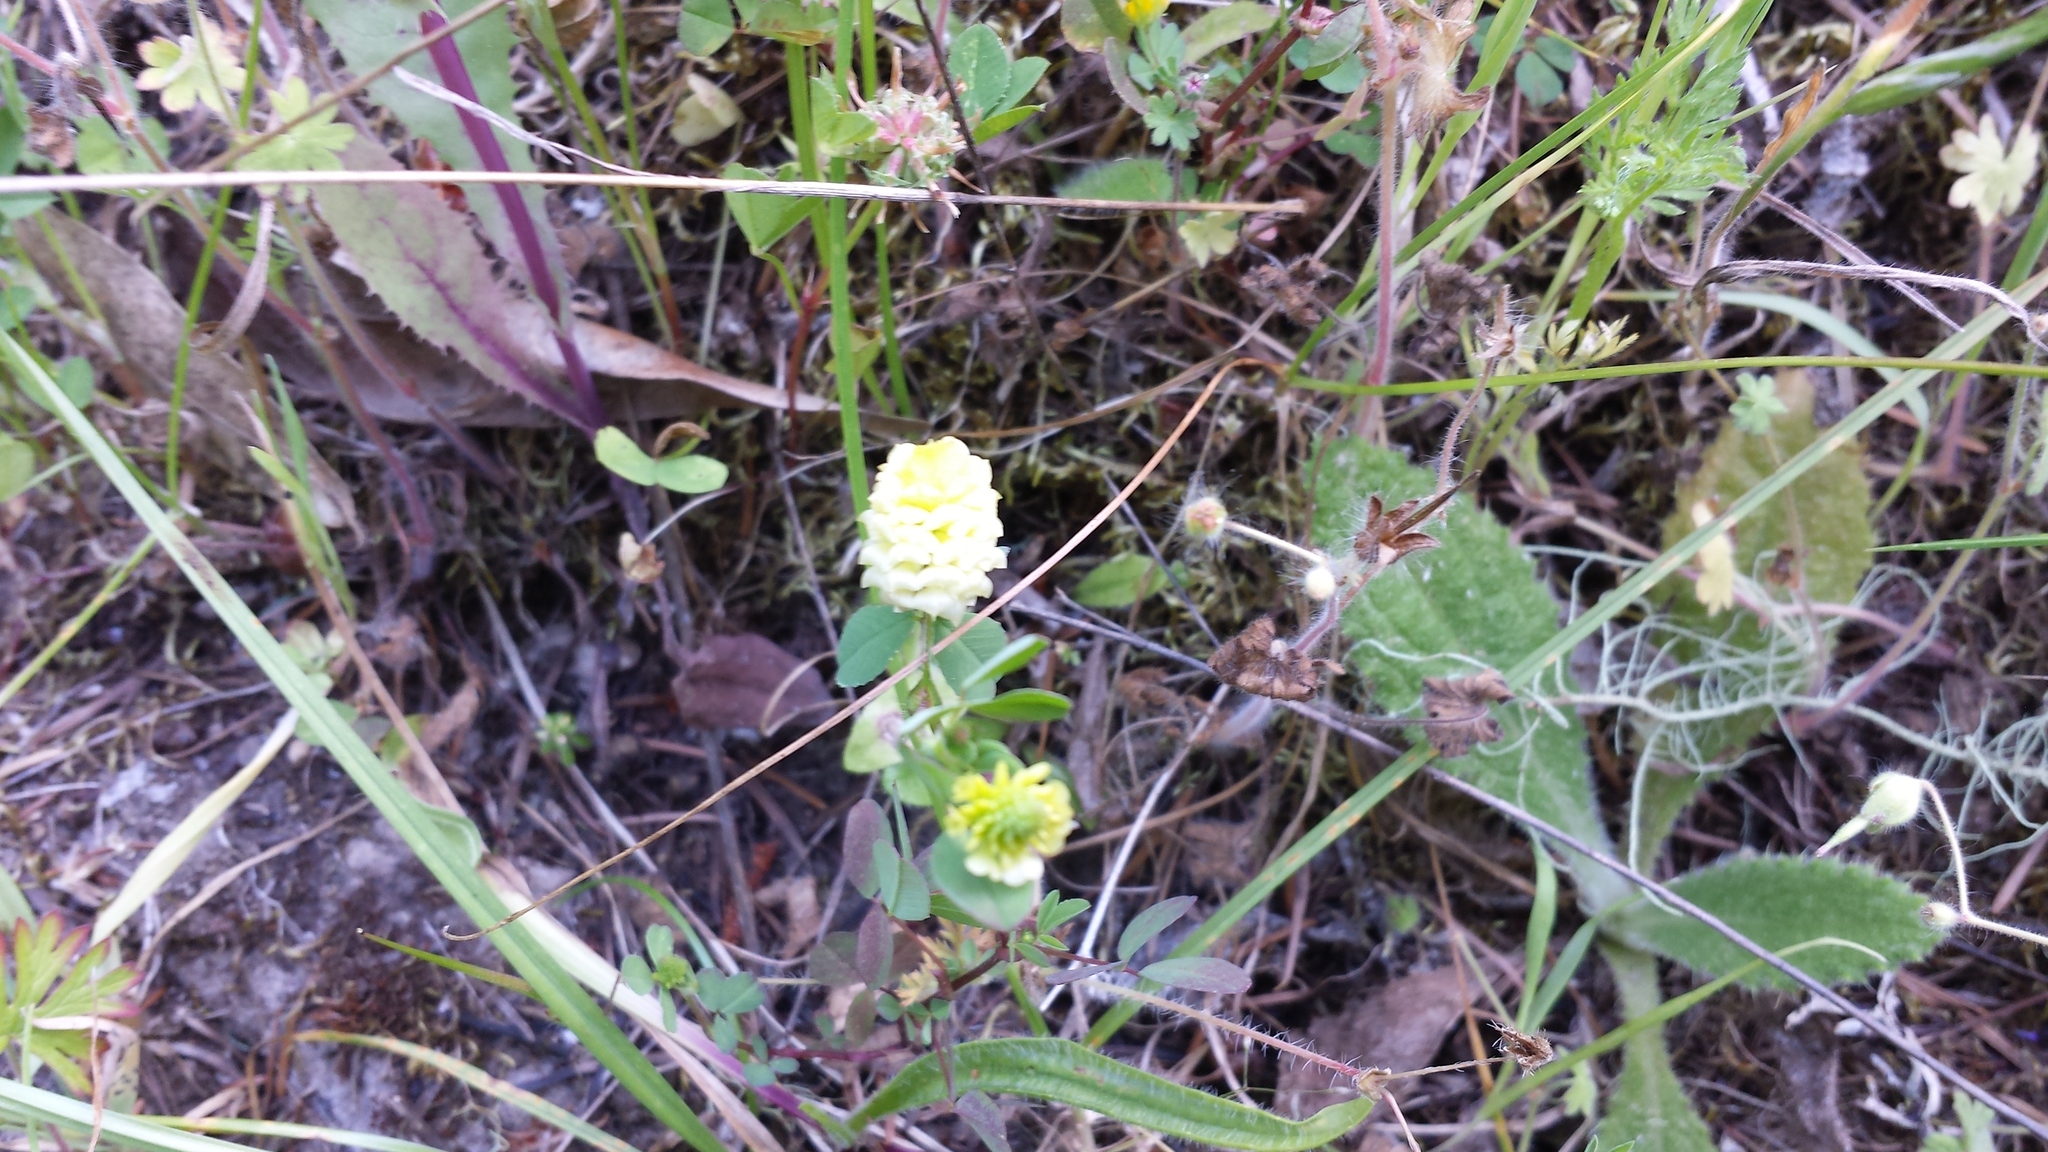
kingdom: Plantae
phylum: Tracheophyta
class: Magnoliopsida
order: Fabales
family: Fabaceae
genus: Trifolium
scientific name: Trifolium campestre
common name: Field clover
